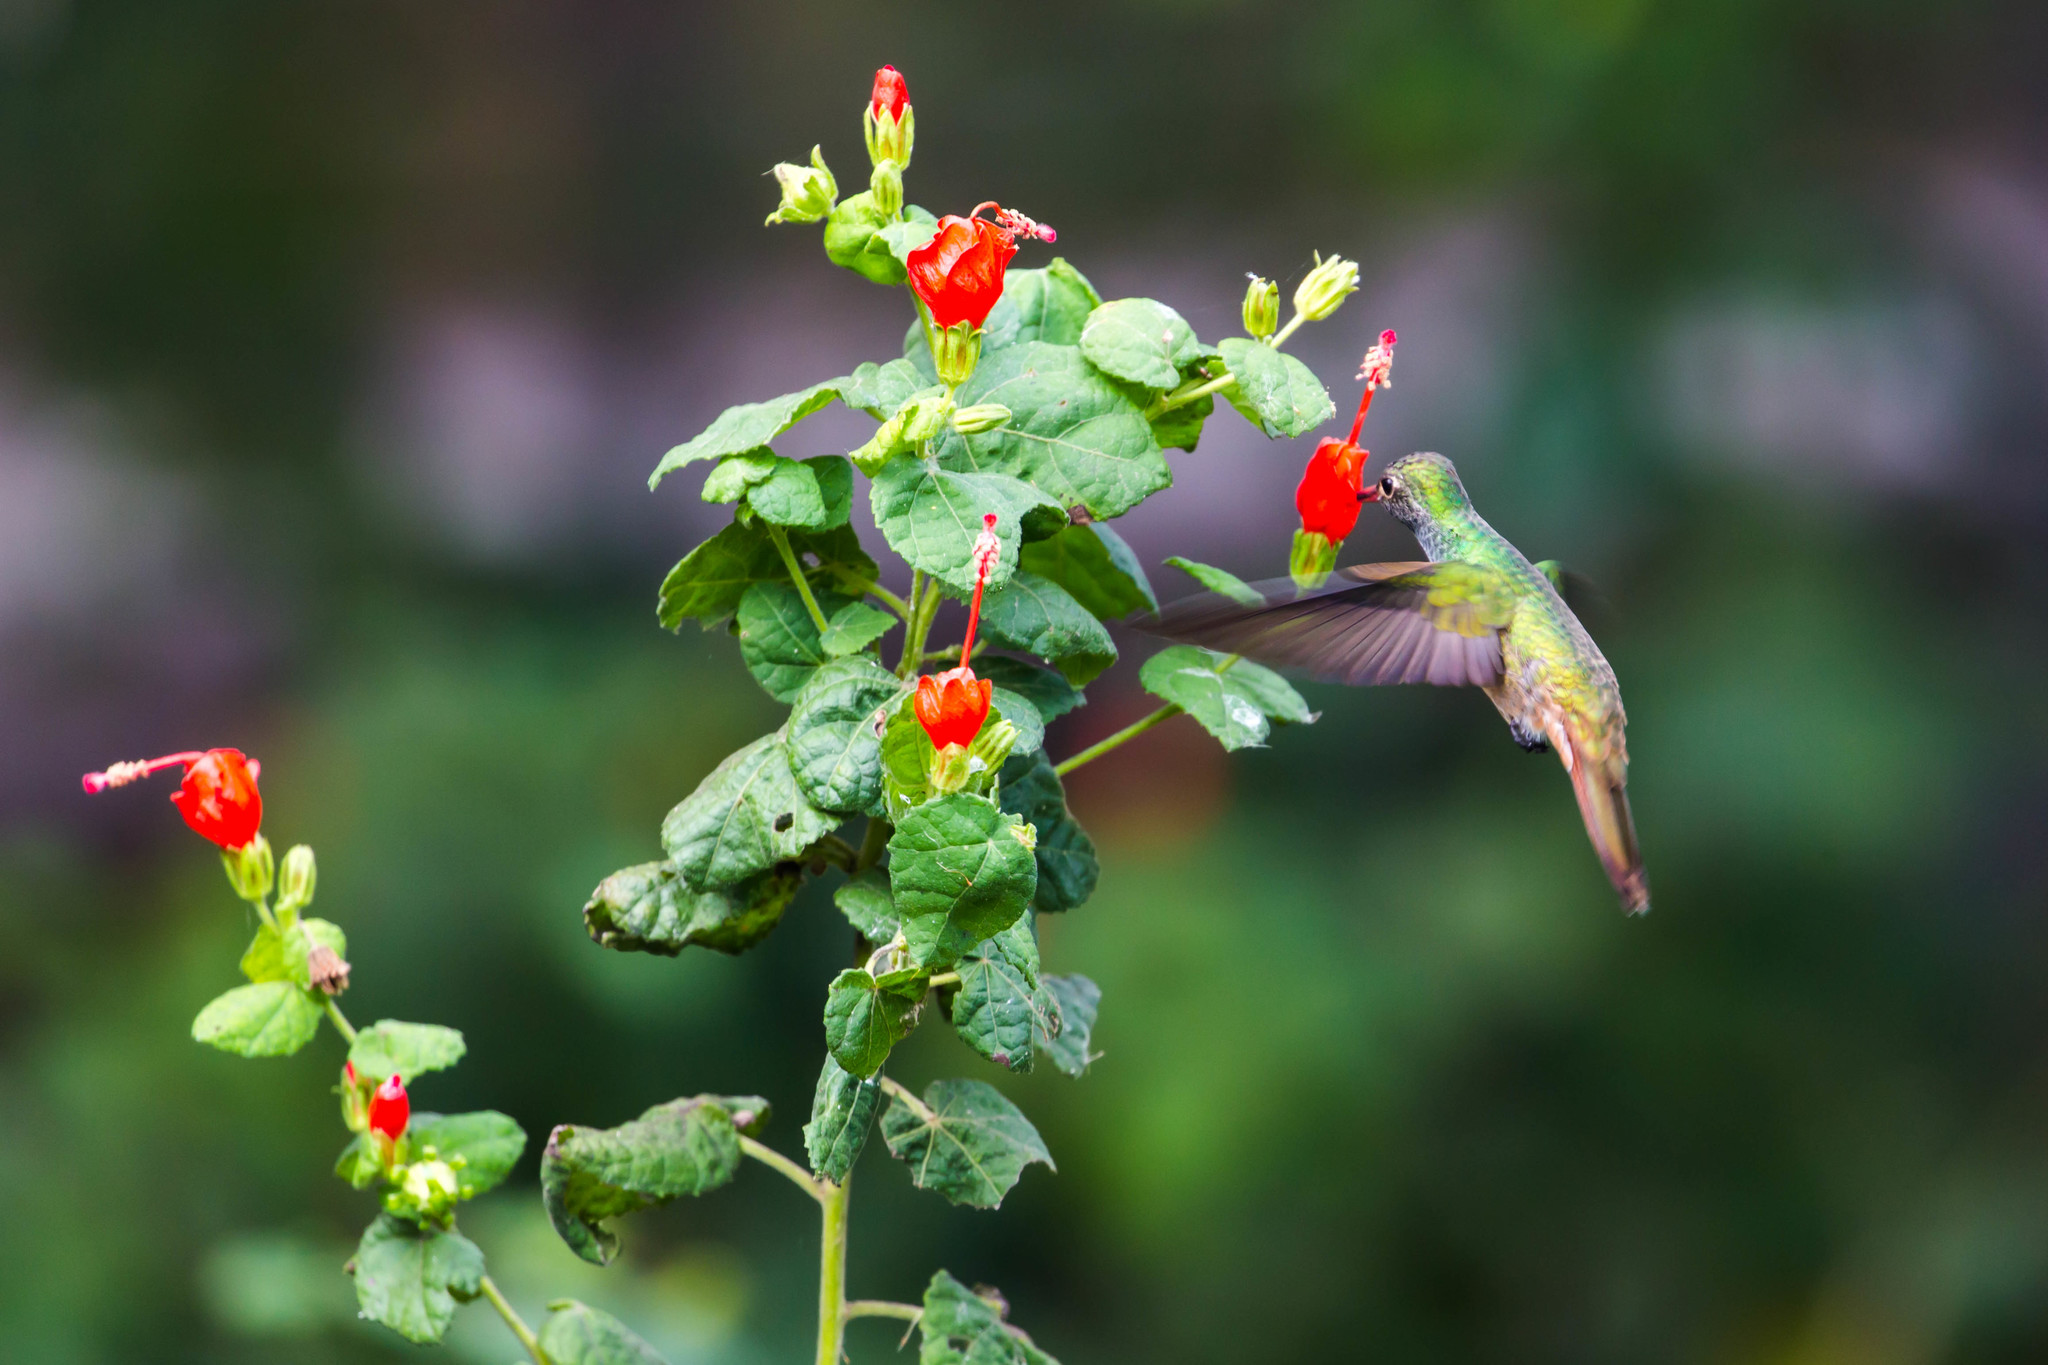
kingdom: Animalia
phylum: Chordata
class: Aves
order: Apodiformes
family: Trochilidae
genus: Amazilia
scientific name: Amazilia yucatanensis
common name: Buff-bellied hummingbird
